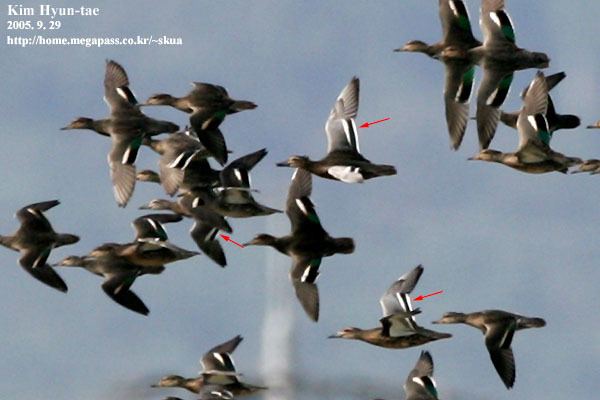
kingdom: Animalia
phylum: Chordata
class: Aves
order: Anseriformes
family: Anatidae
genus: Spatula
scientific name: Spatula querquedula
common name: Garganey
